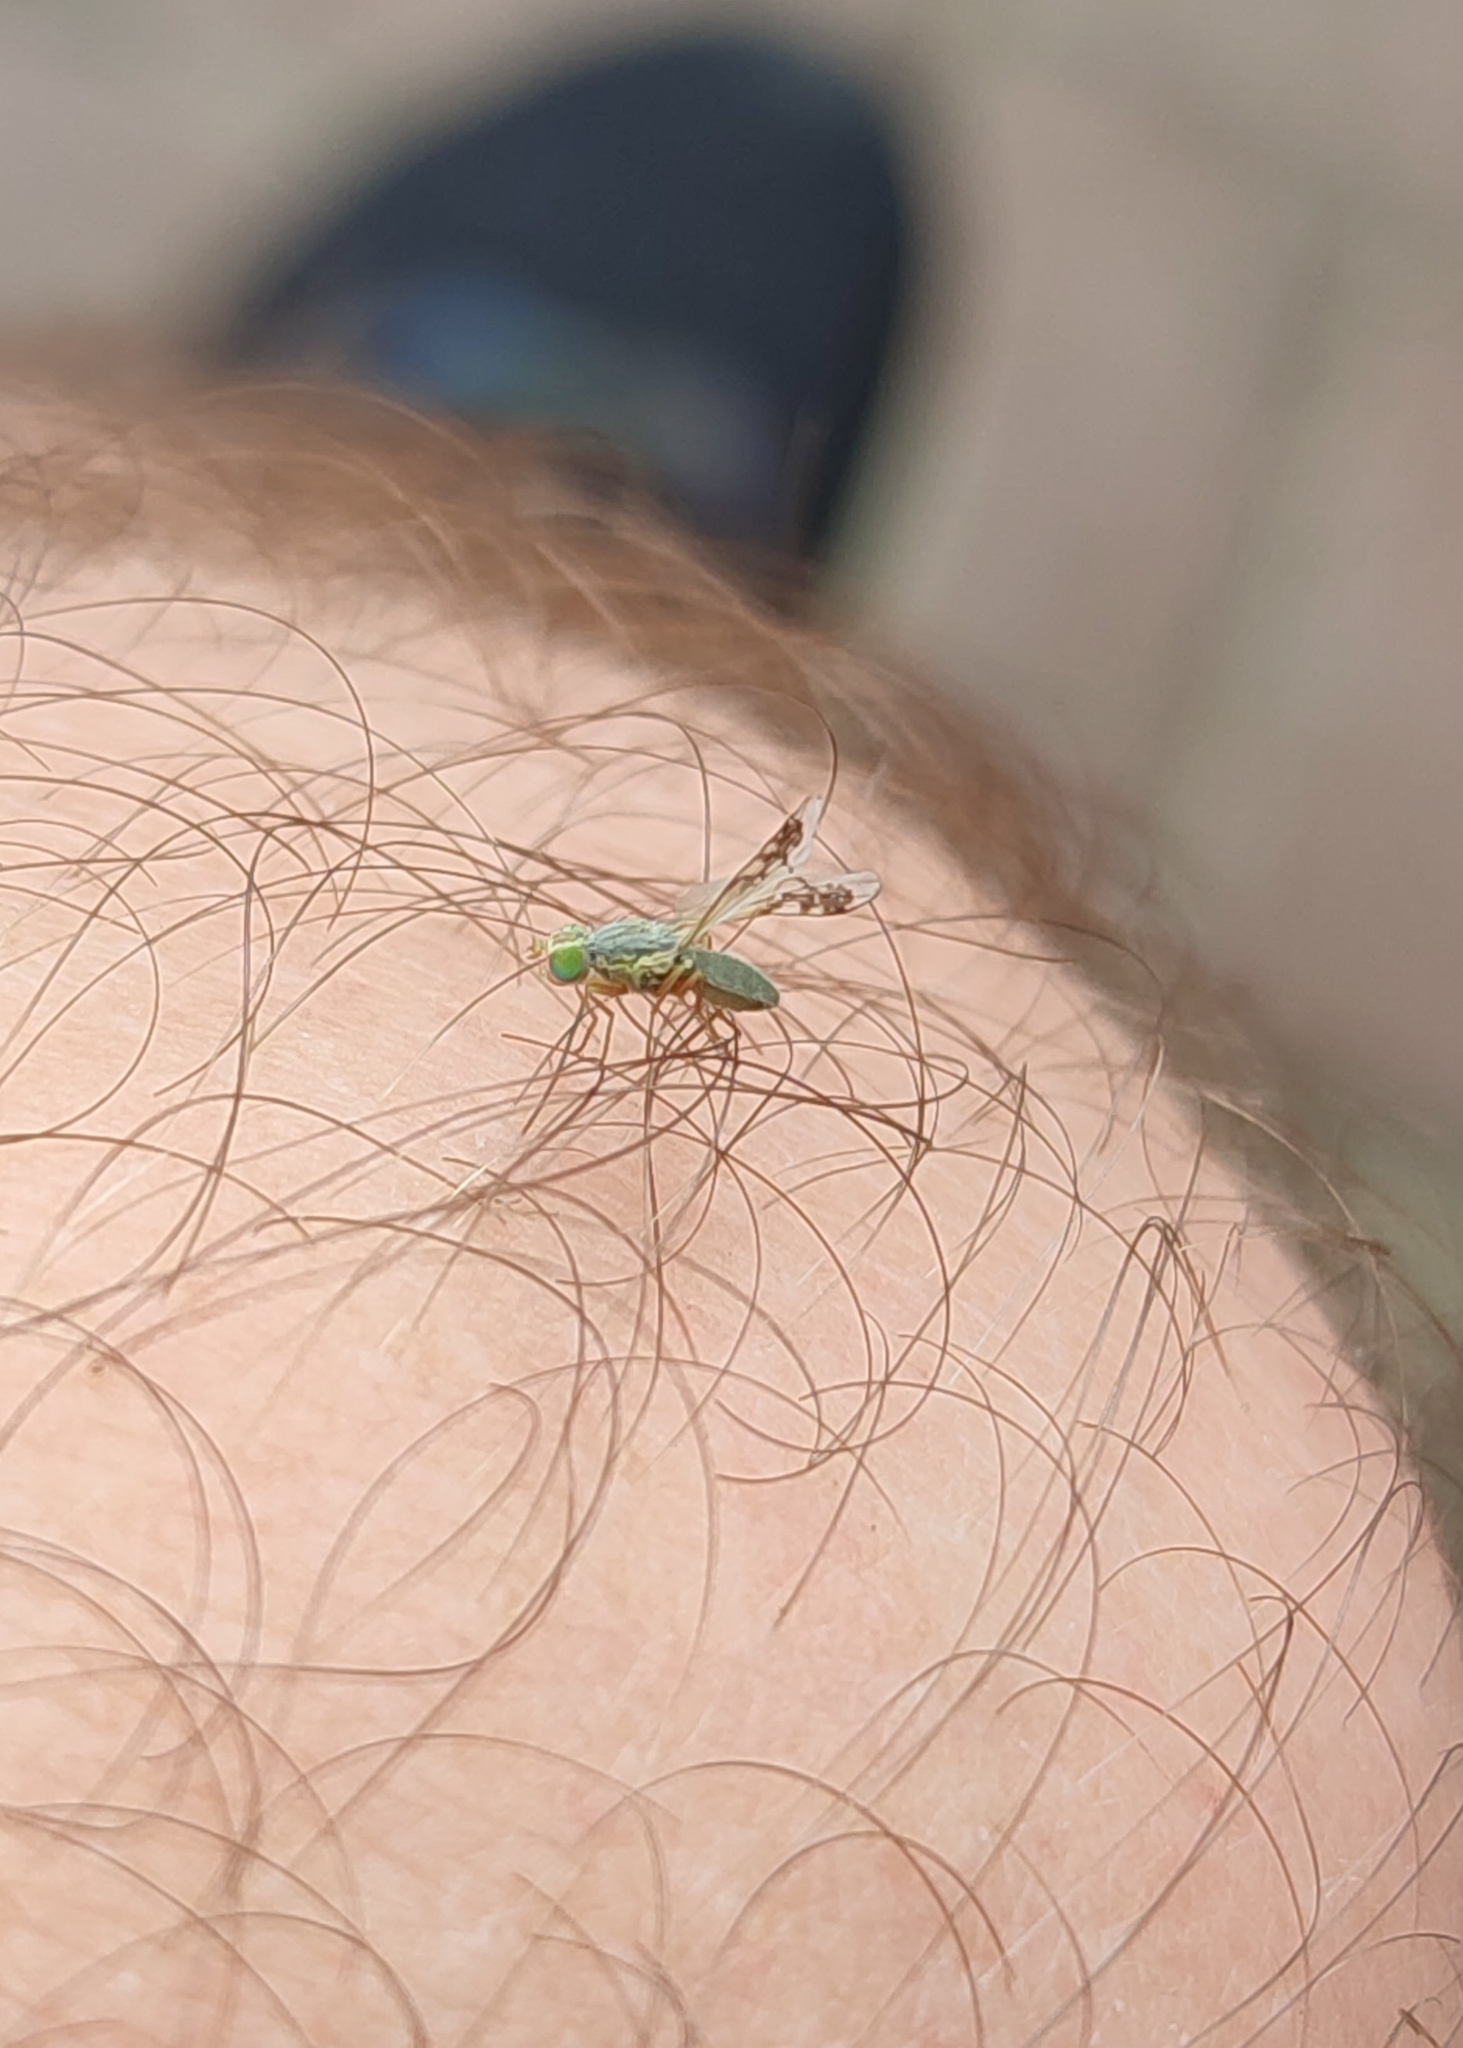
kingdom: Animalia
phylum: Arthropoda
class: Insecta
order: Diptera
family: Tephritidae
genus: Acanthiophilus
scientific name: Acanthiophilus helianthi
